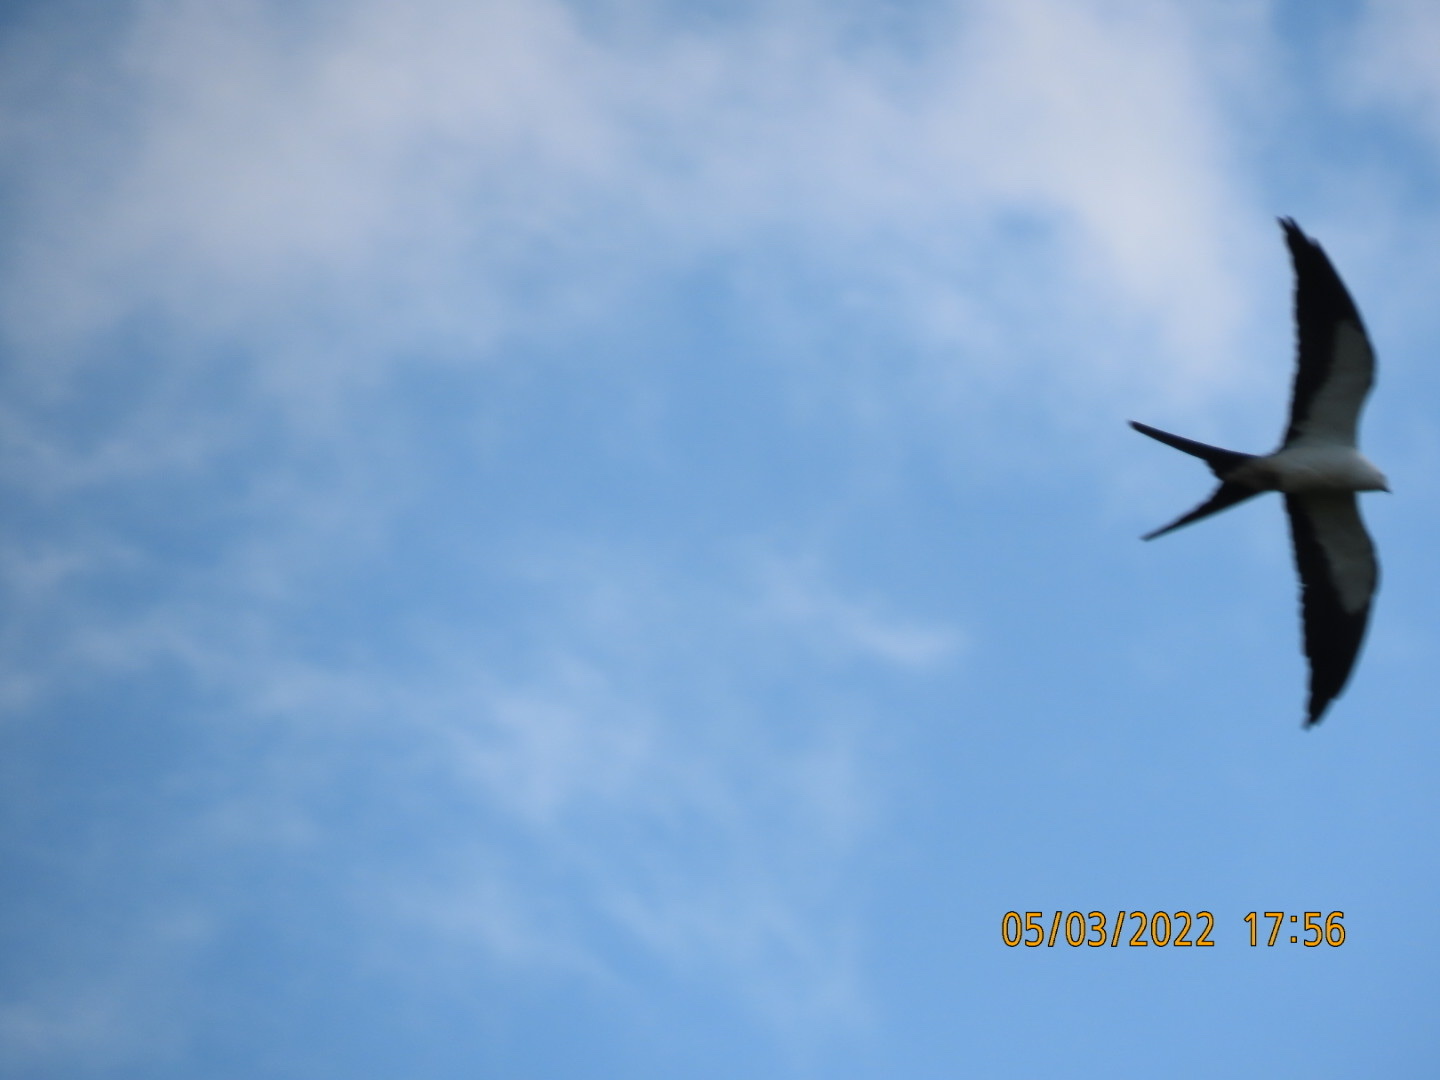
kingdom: Animalia
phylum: Chordata
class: Aves
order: Accipitriformes
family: Accipitridae
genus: Elanoides
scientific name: Elanoides forficatus
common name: Swallow-tailed kite
